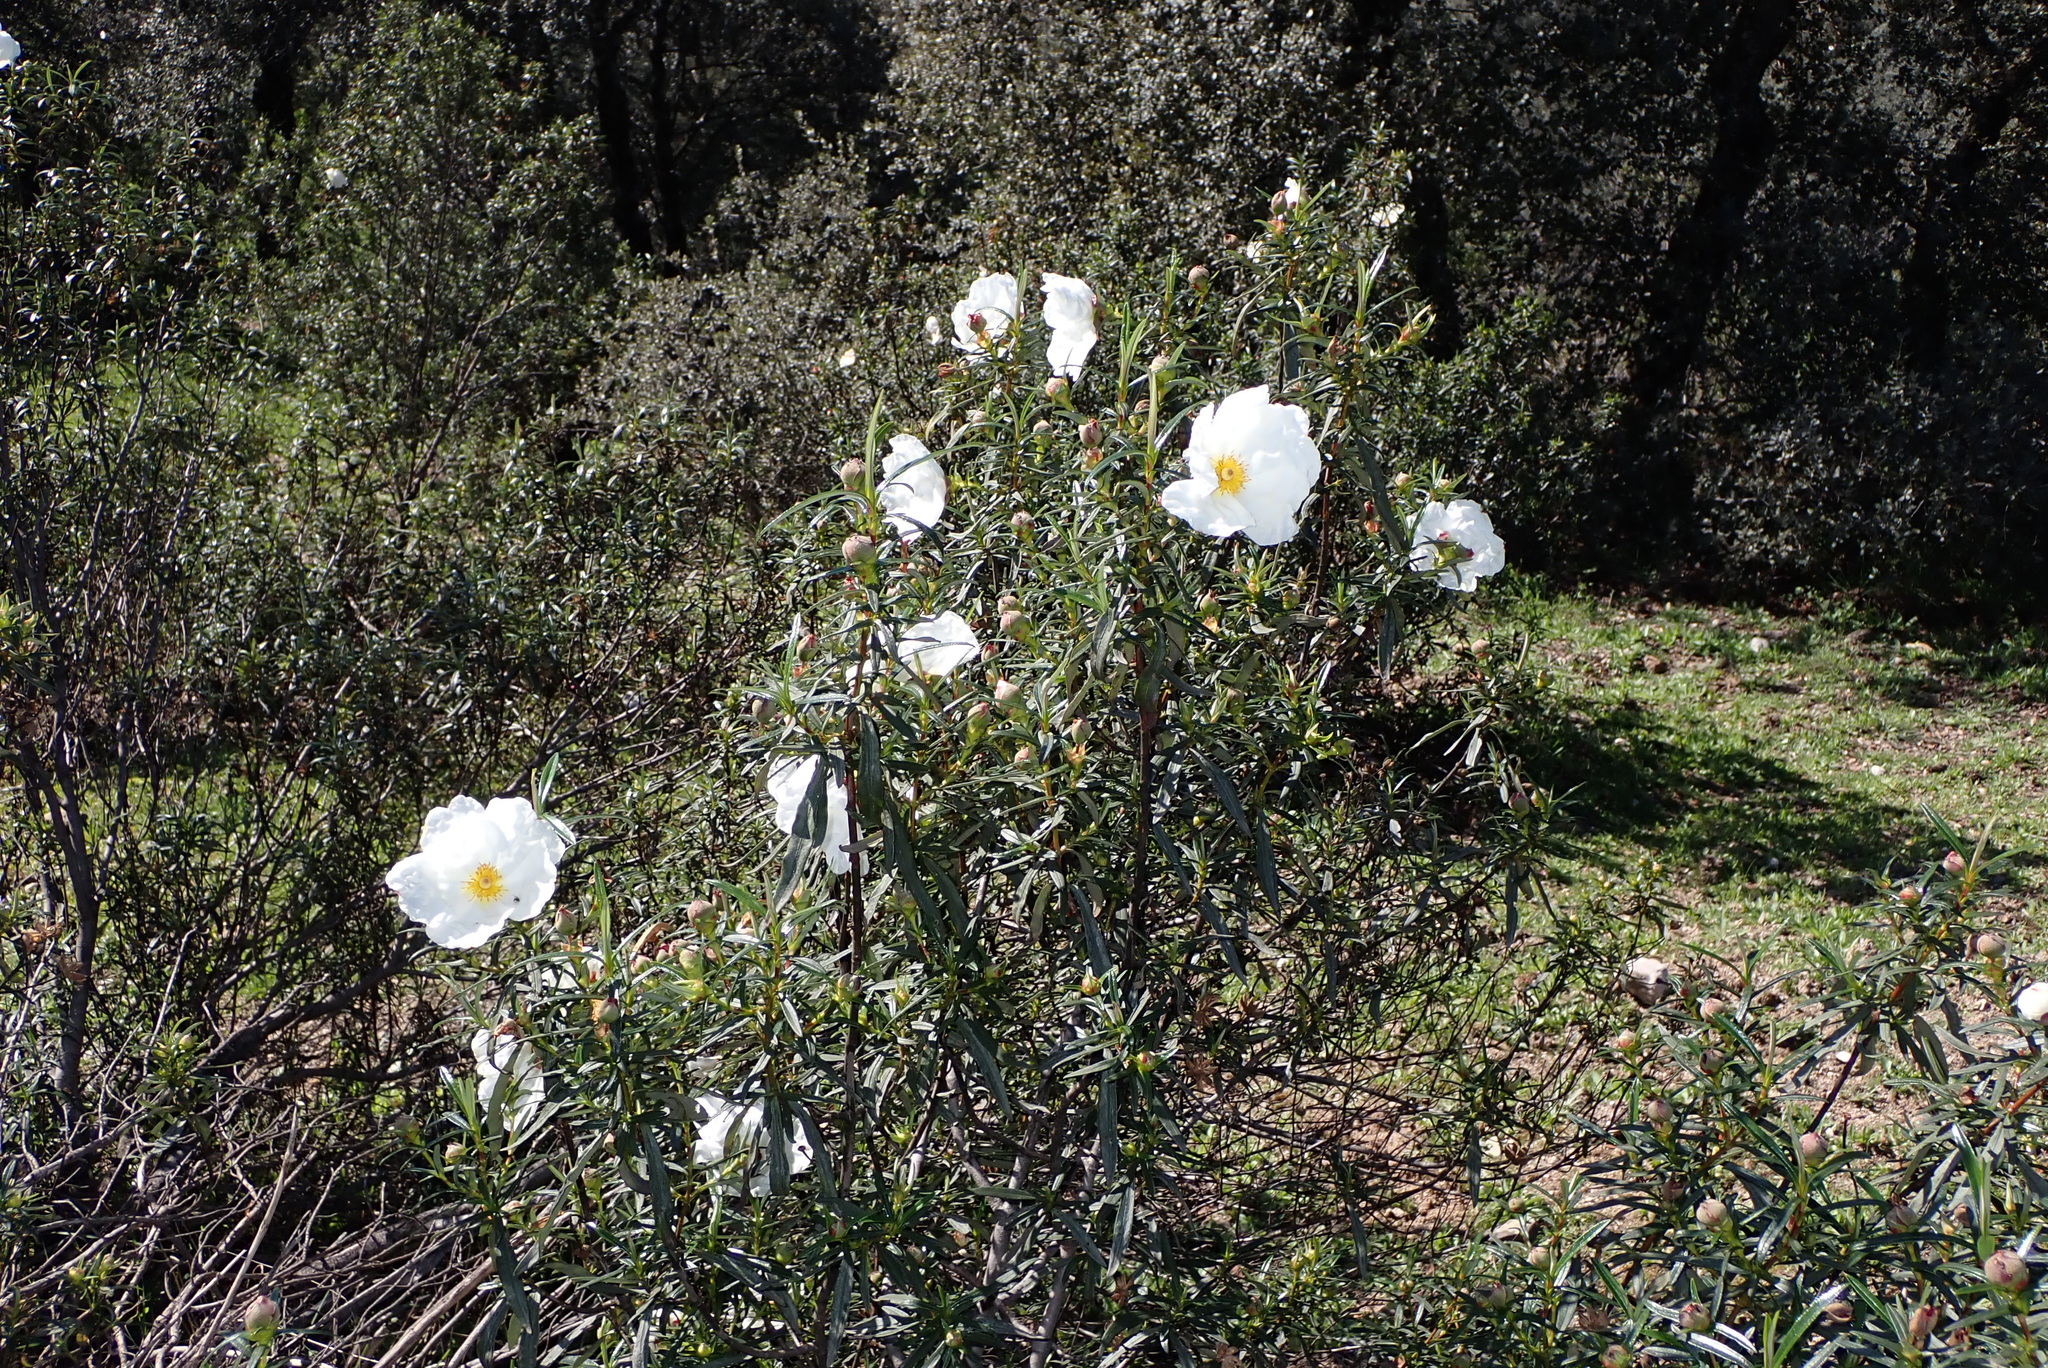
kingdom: Plantae
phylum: Tracheophyta
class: Magnoliopsida
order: Malvales
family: Cistaceae
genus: Cistus
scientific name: Cistus ladanifer
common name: Common gum cistus
